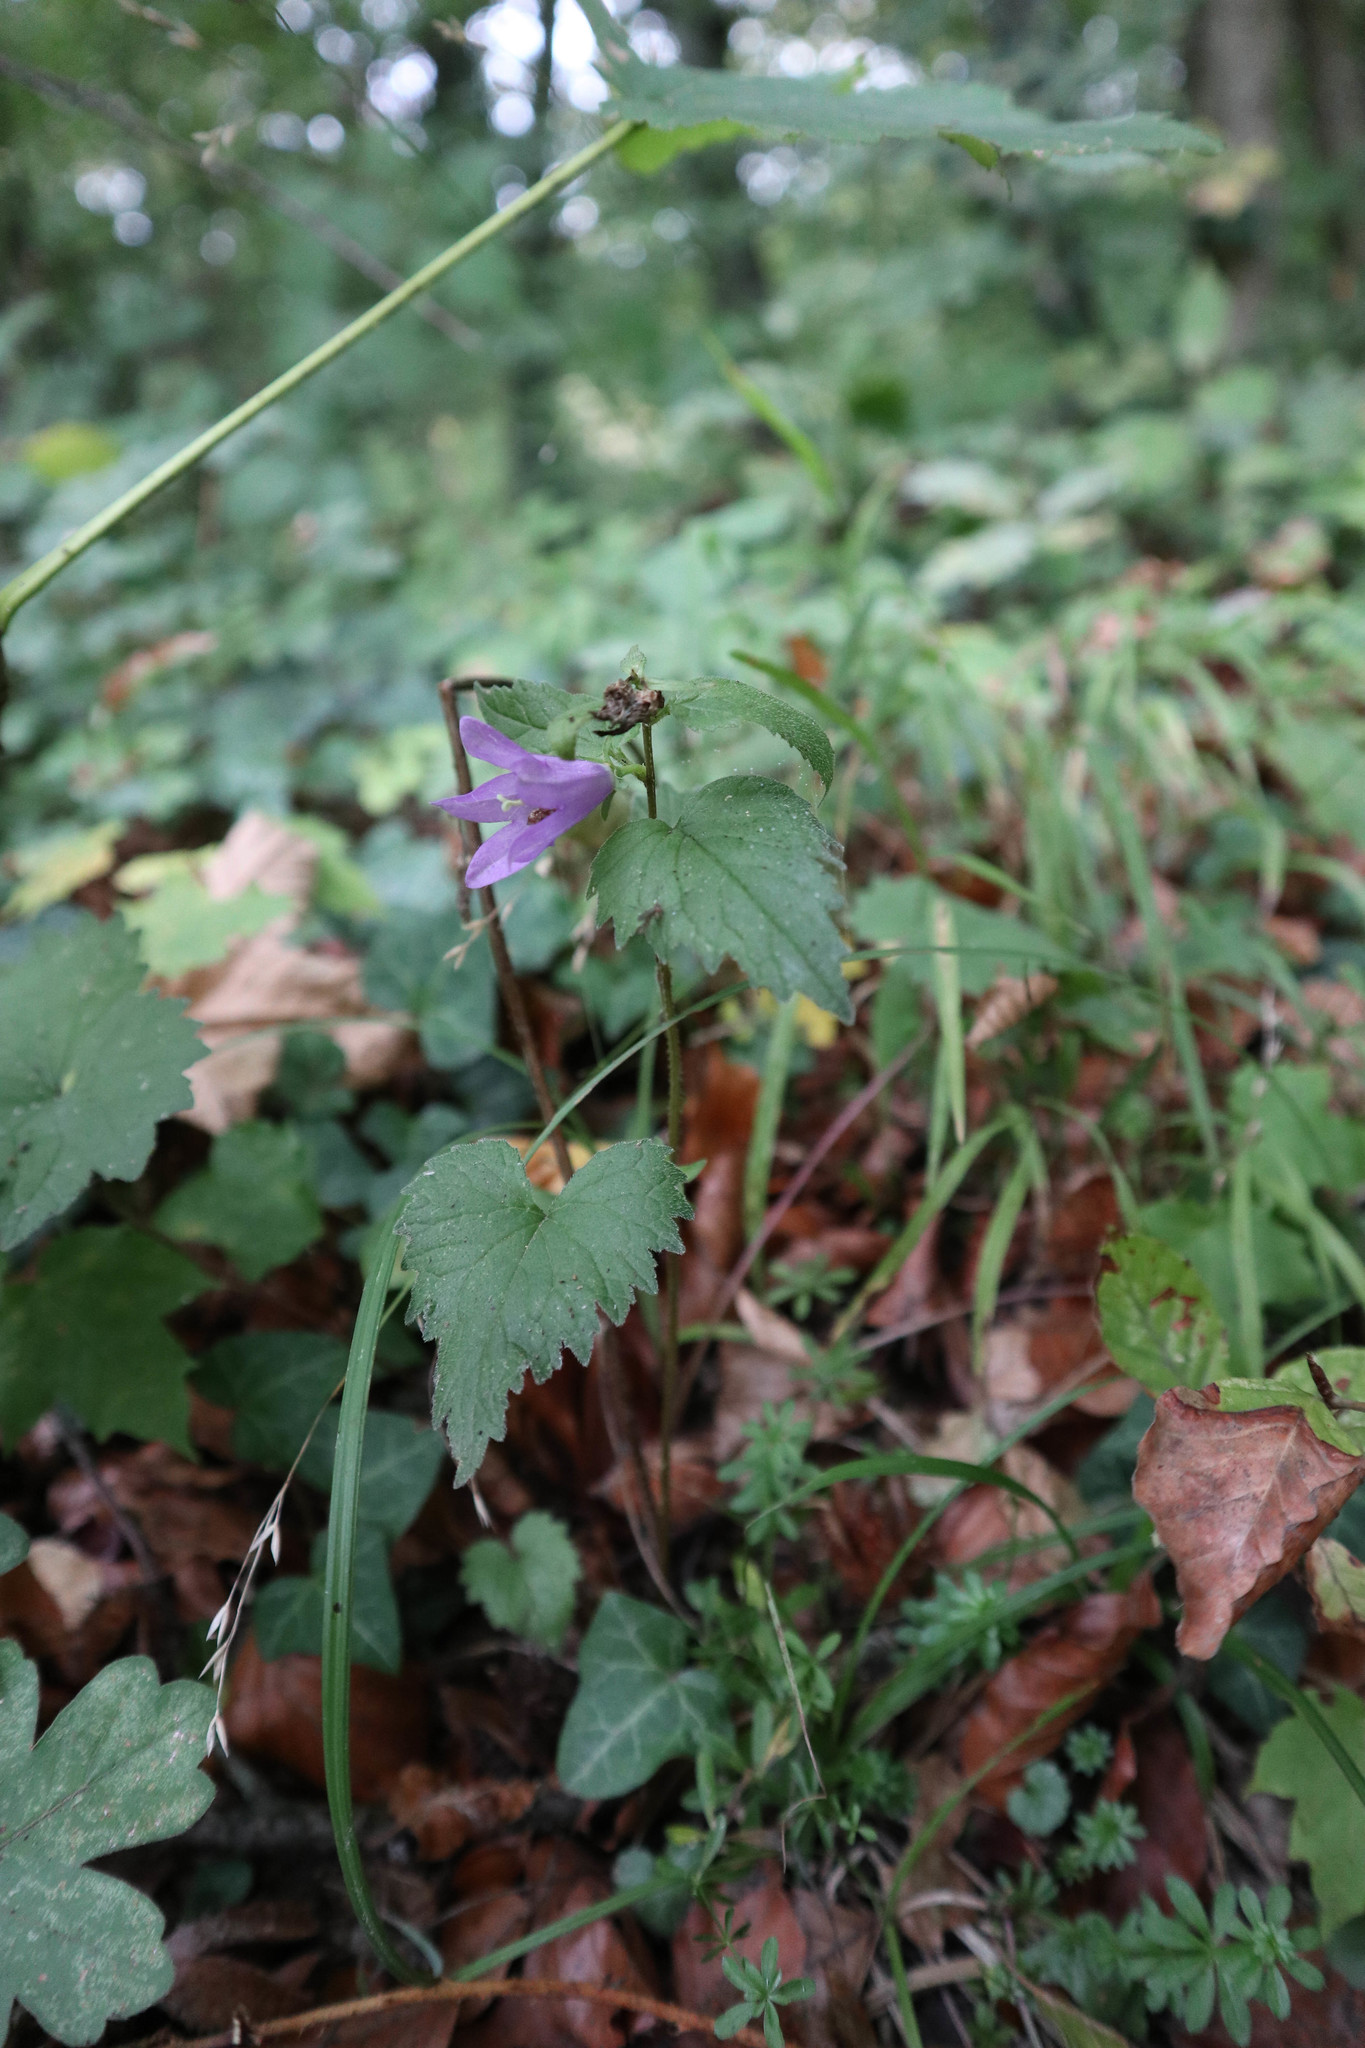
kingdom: Plantae
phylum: Tracheophyta
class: Magnoliopsida
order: Asterales
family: Campanulaceae
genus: Campanula
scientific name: Campanula trachelium
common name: Nettle-leaved bellflower
